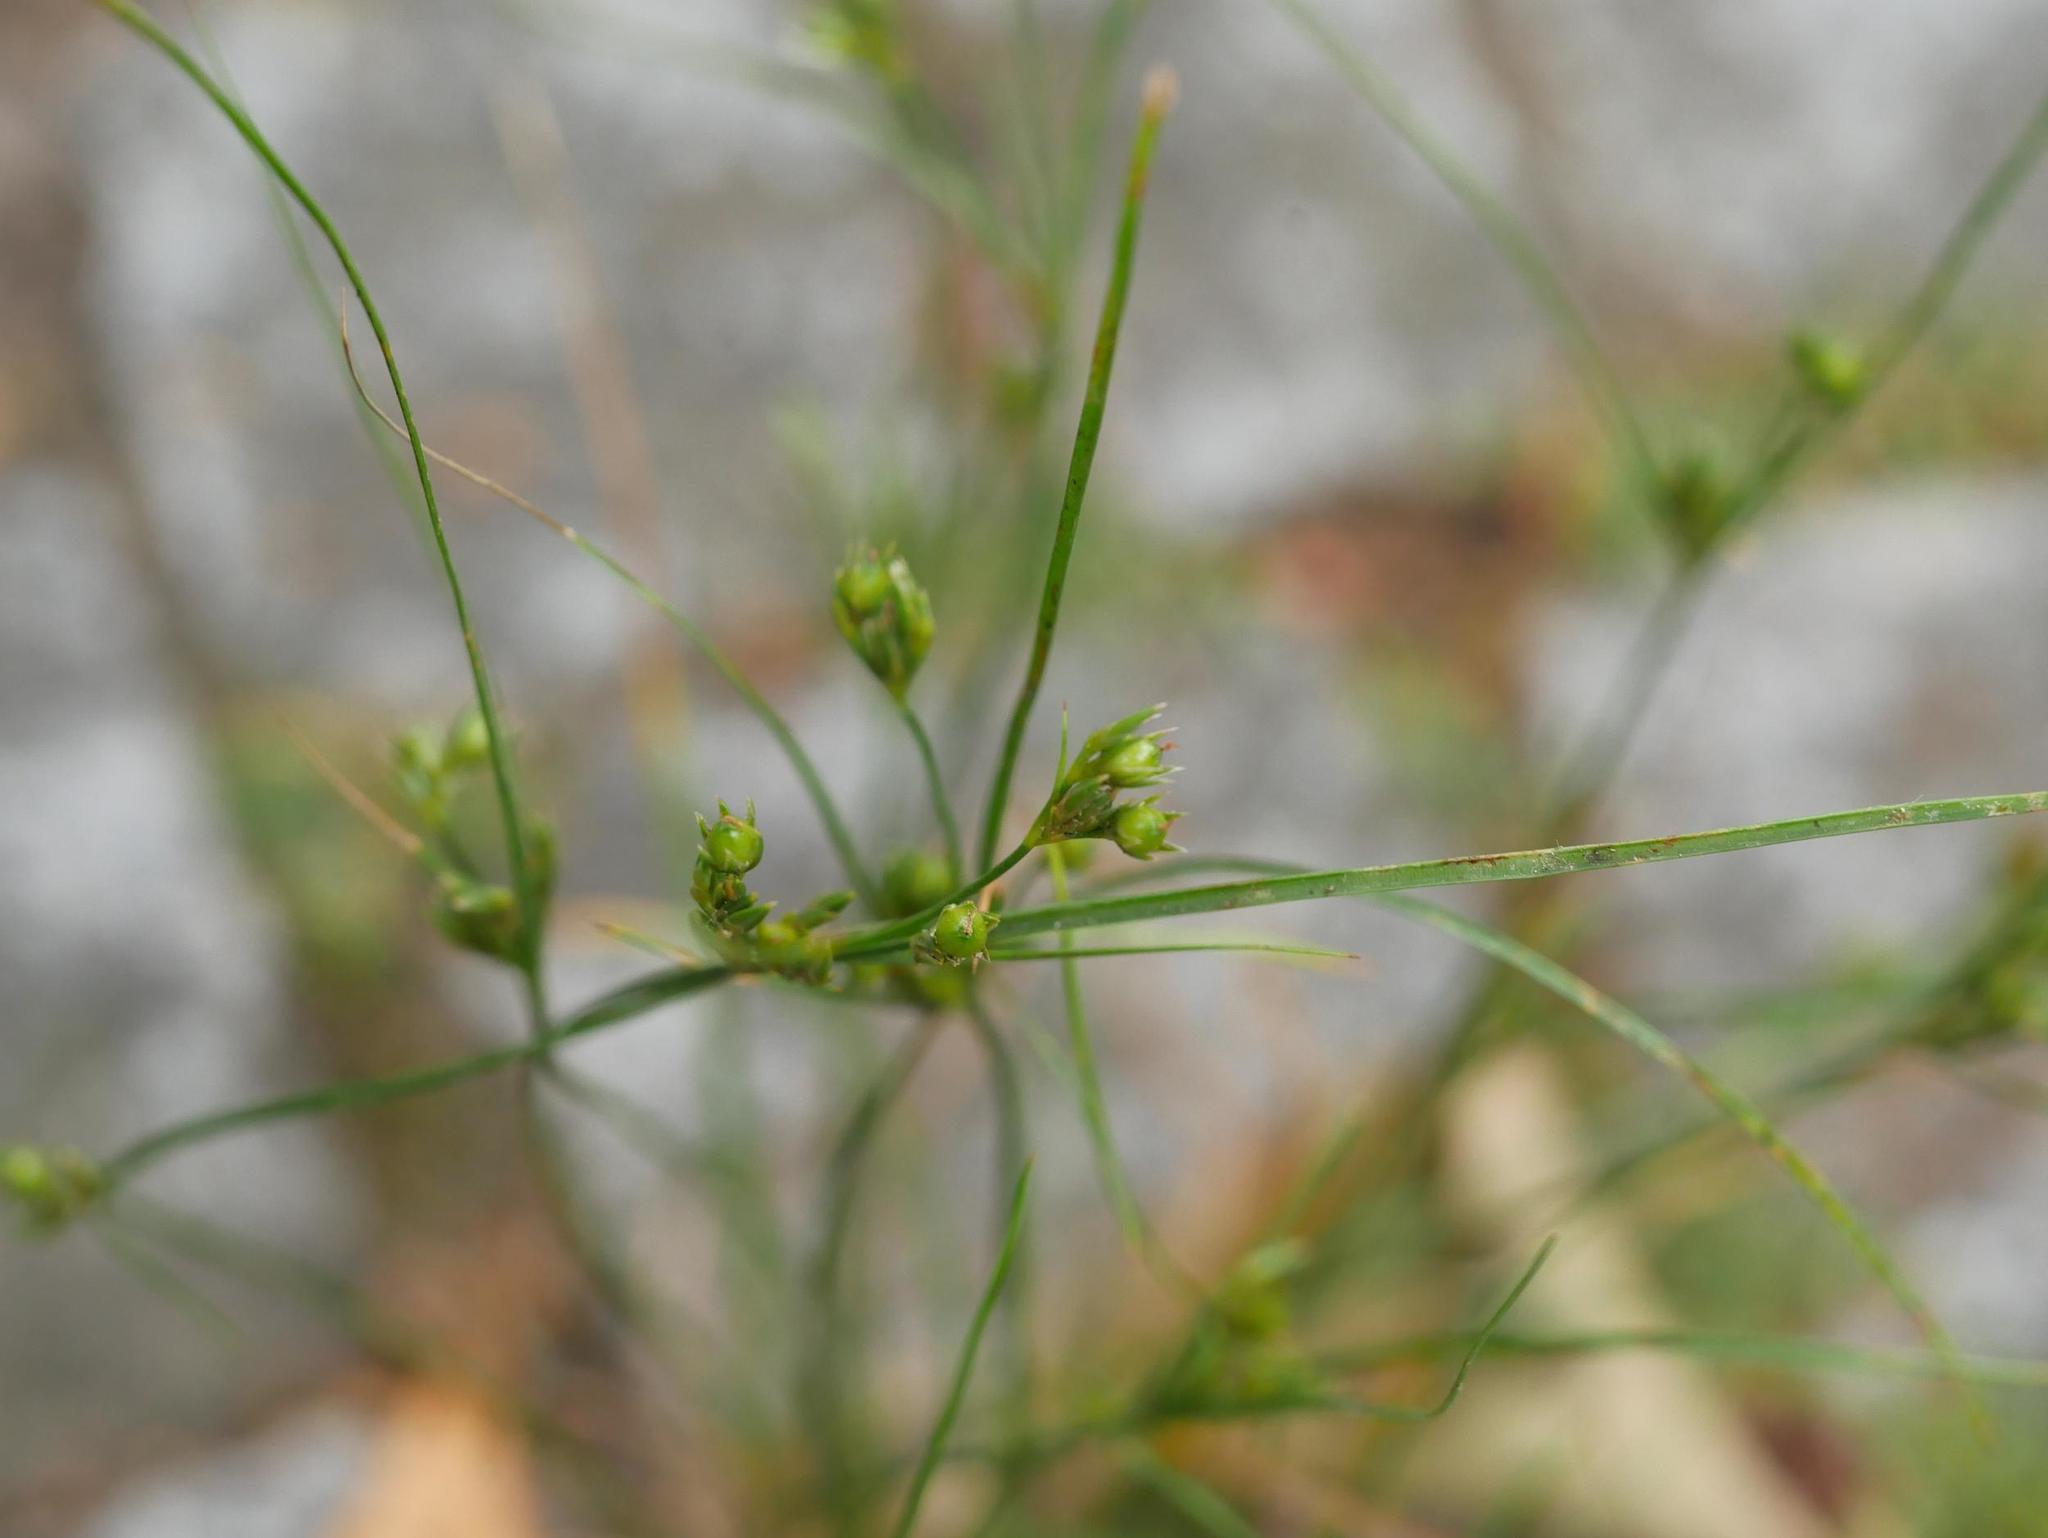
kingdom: Plantae
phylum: Tracheophyta
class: Liliopsida
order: Poales
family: Juncaceae
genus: Juncus
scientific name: Juncus tenuis
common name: Slender rush
